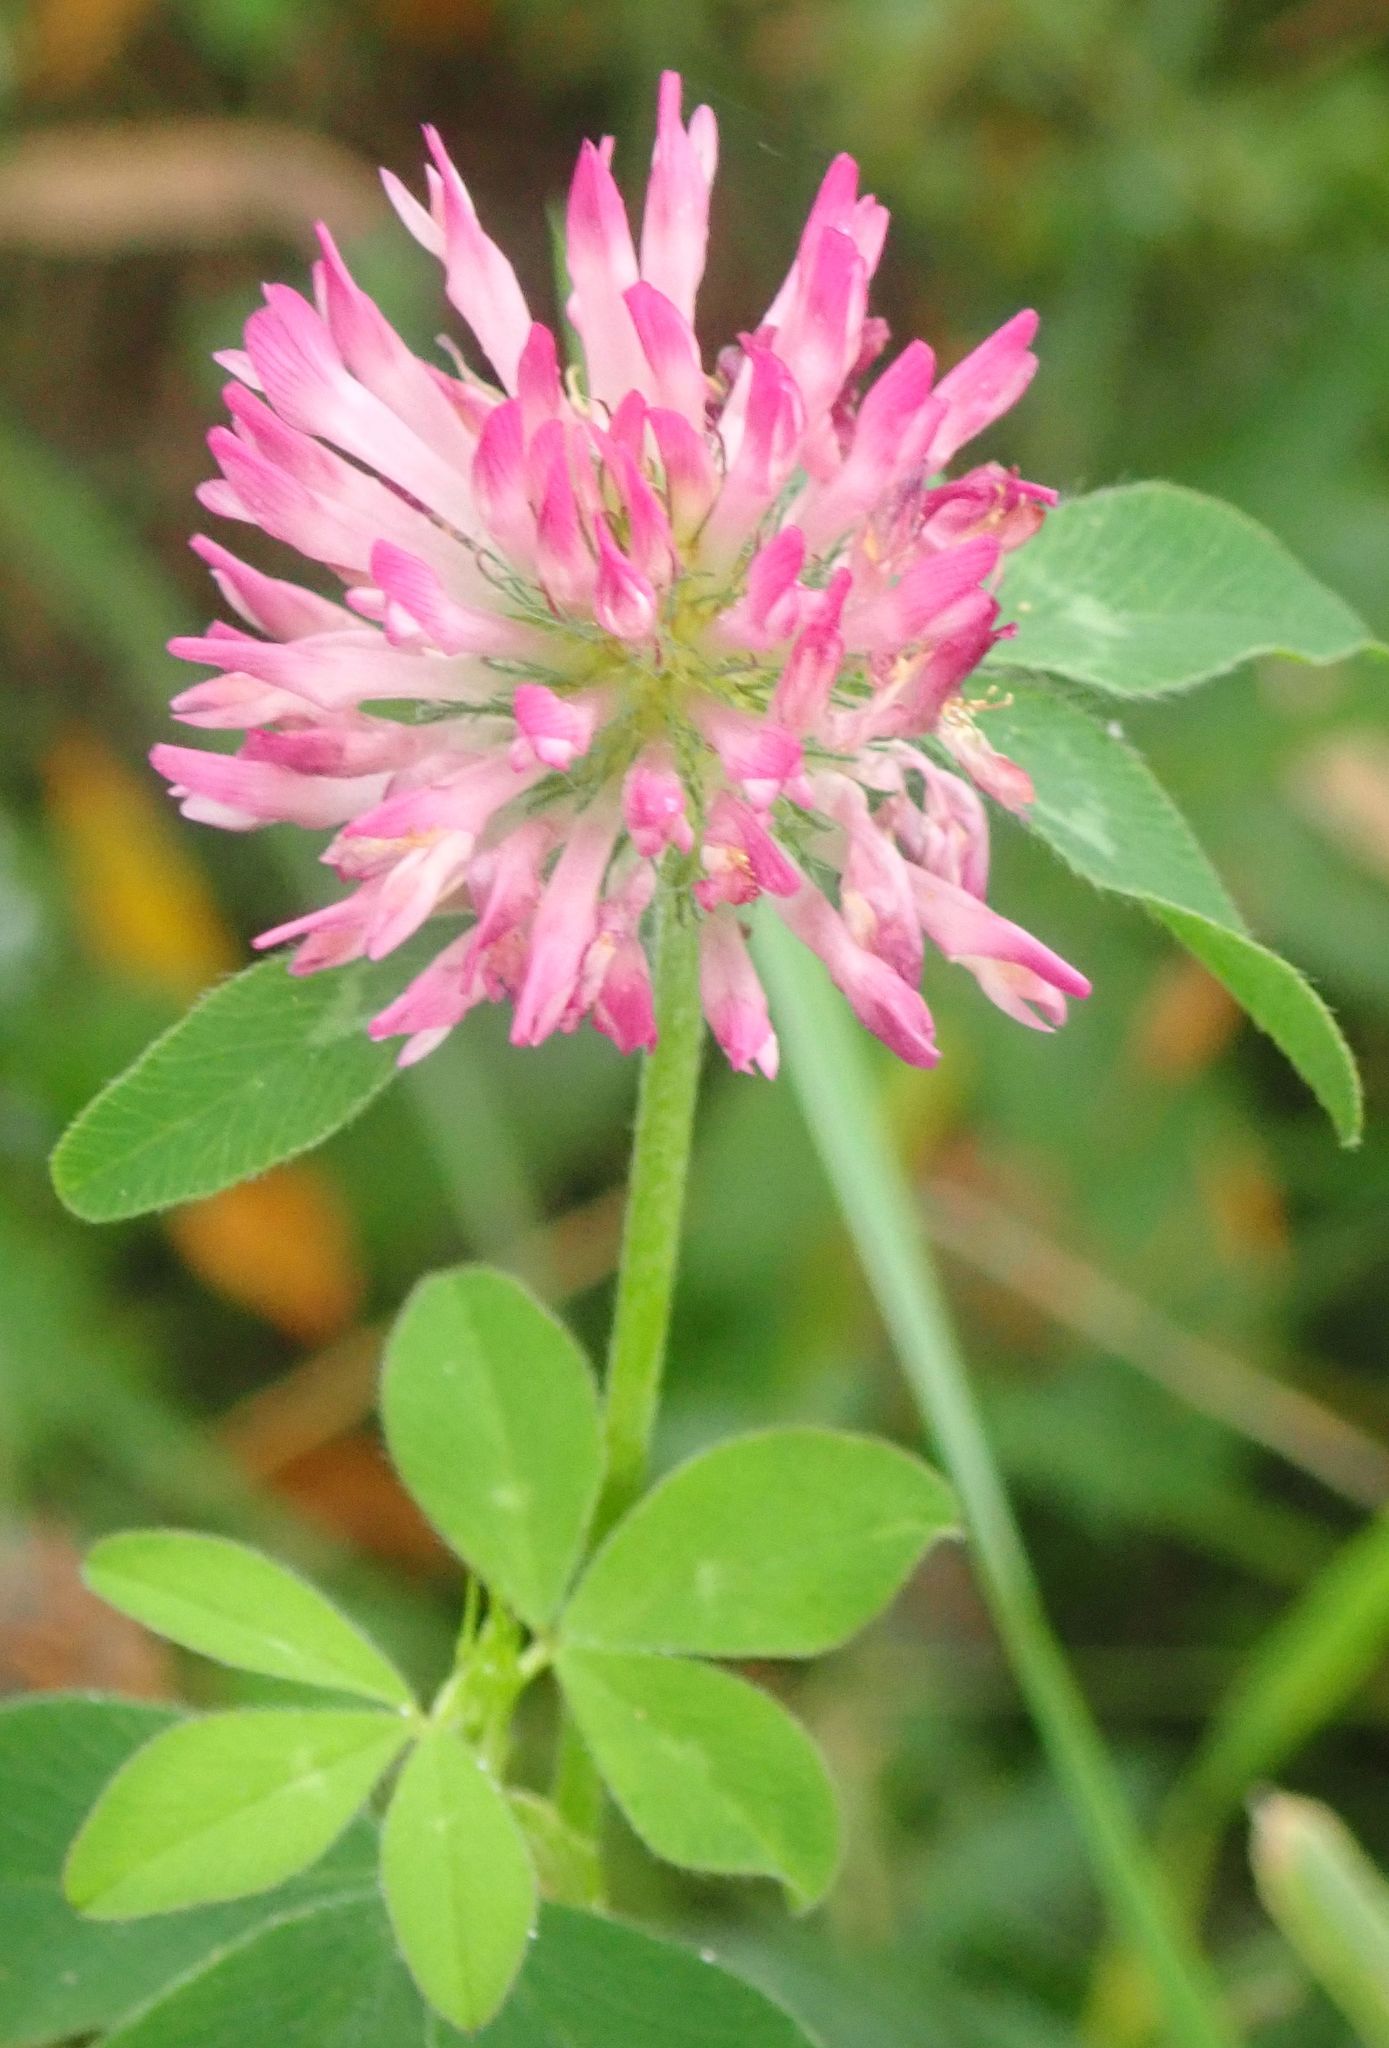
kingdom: Plantae
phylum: Tracheophyta
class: Magnoliopsida
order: Fabales
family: Fabaceae
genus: Trifolium
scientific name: Trifolium pratense
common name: Red clover
